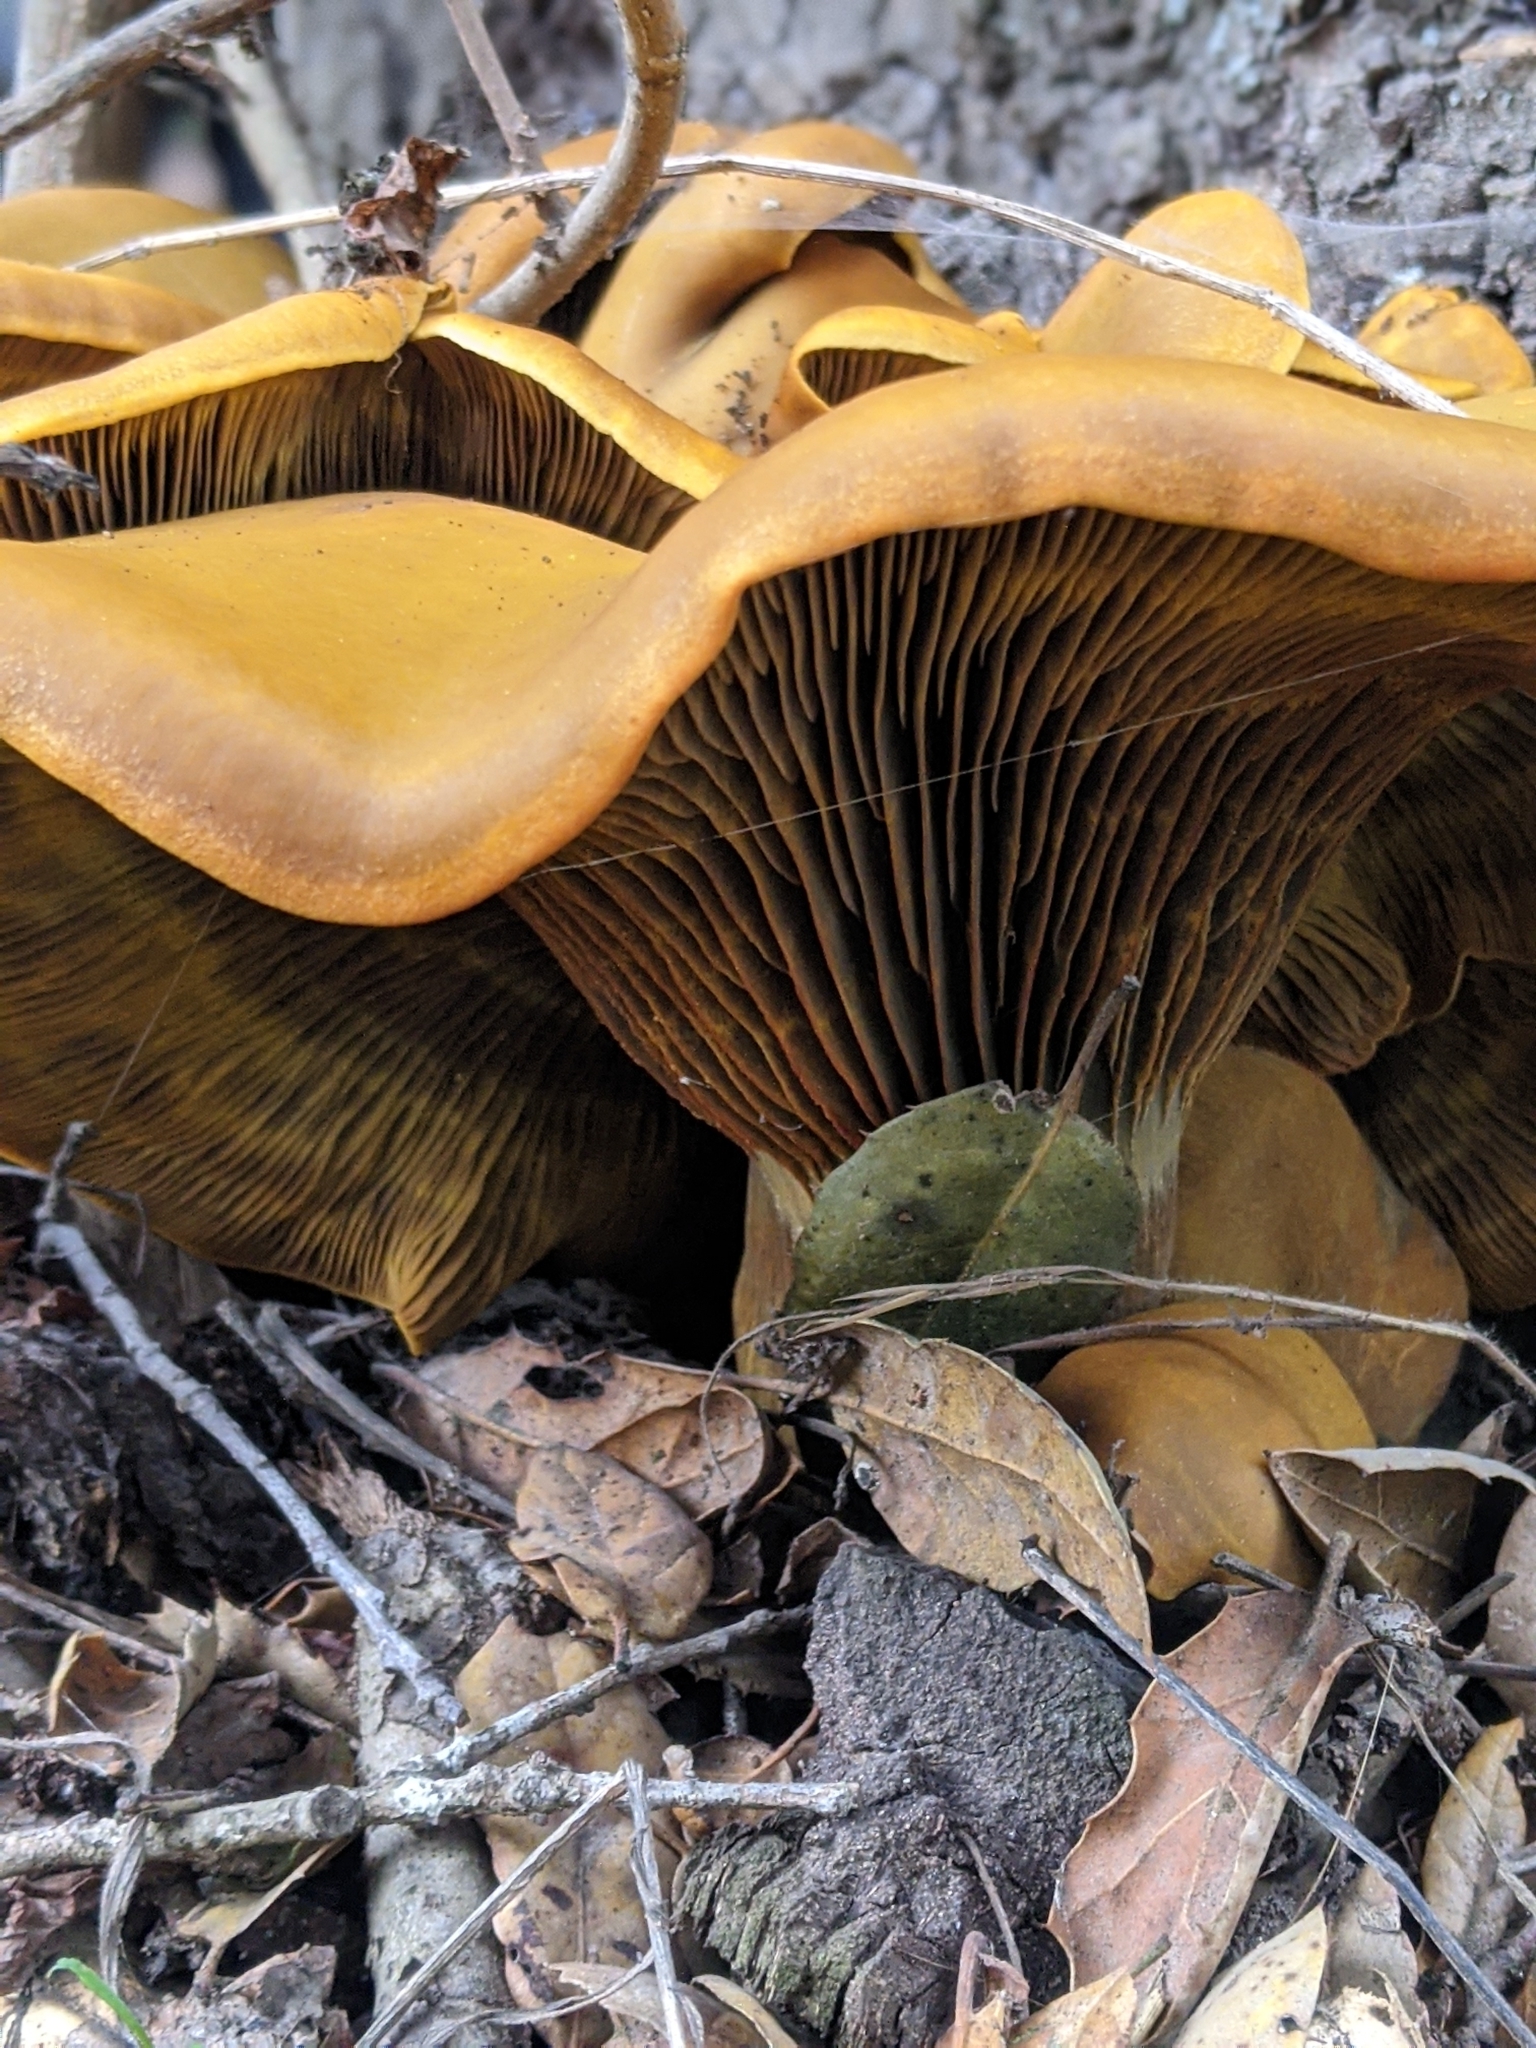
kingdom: Fungi
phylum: Basidiomycota
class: Agaricomycetes
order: Agaricales
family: Omphalotaceae
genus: Omphalotus
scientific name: Omphalotus olivascens
